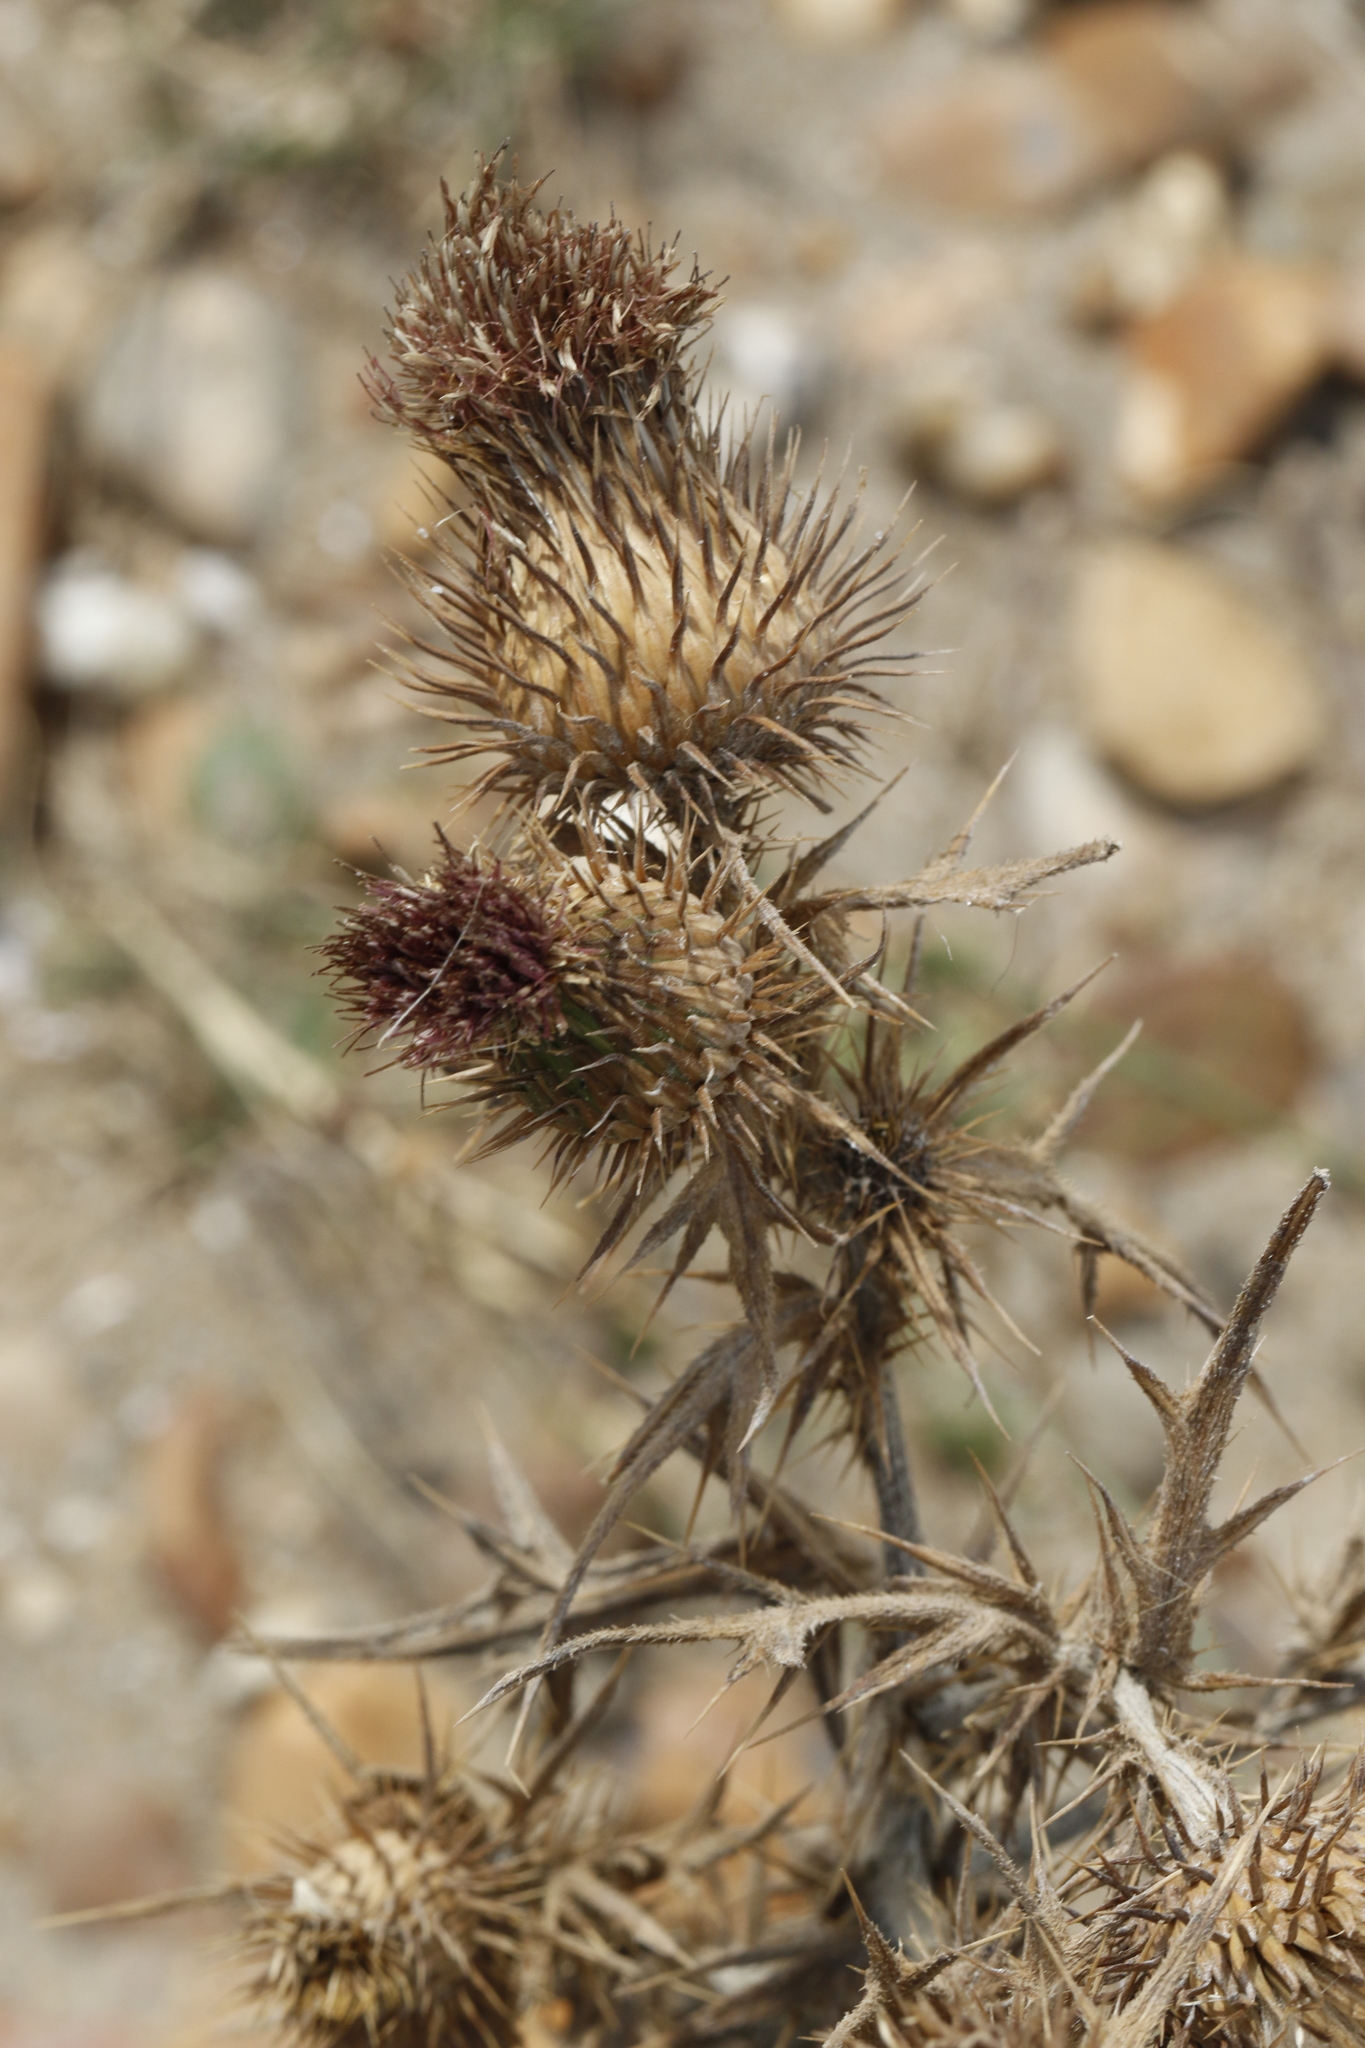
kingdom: Plantae
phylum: Tracheophyta
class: Magnoliopsida
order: Asterales
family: Asteraceae
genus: Cirsium
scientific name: Cirsium vulgare
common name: Bull thistle
